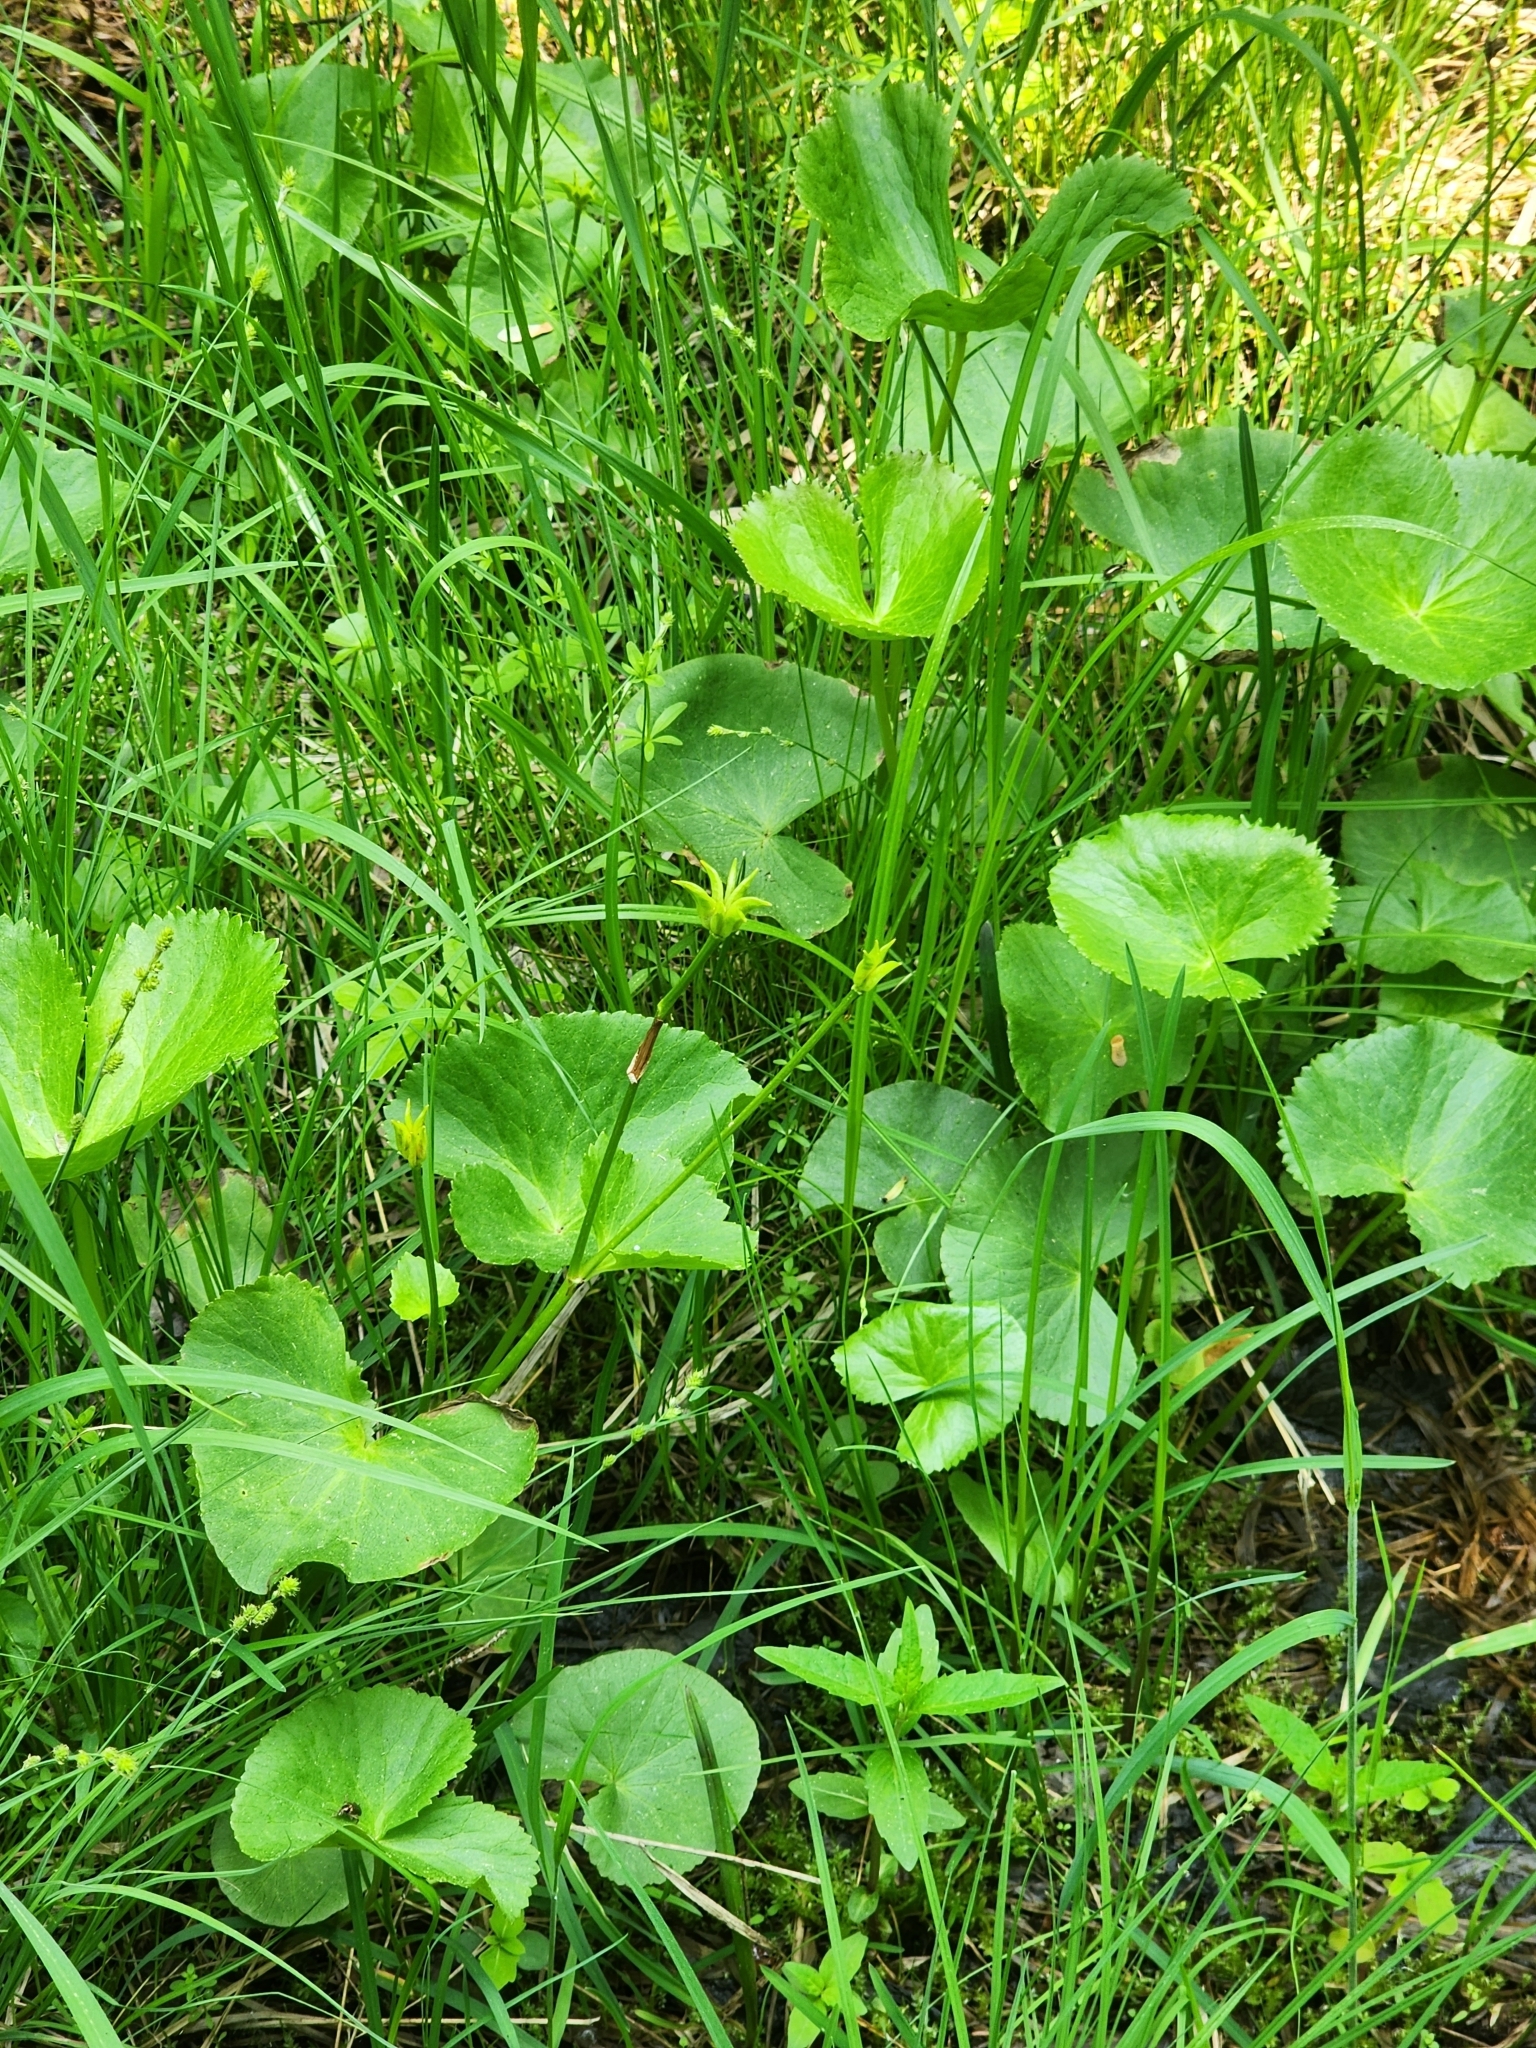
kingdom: Plantae
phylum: Tracheophyta
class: Magnoliopsida
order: Ranunculales
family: Ranunculaceae
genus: Caltha
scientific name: Caltha palustris
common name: Marsh marigold
